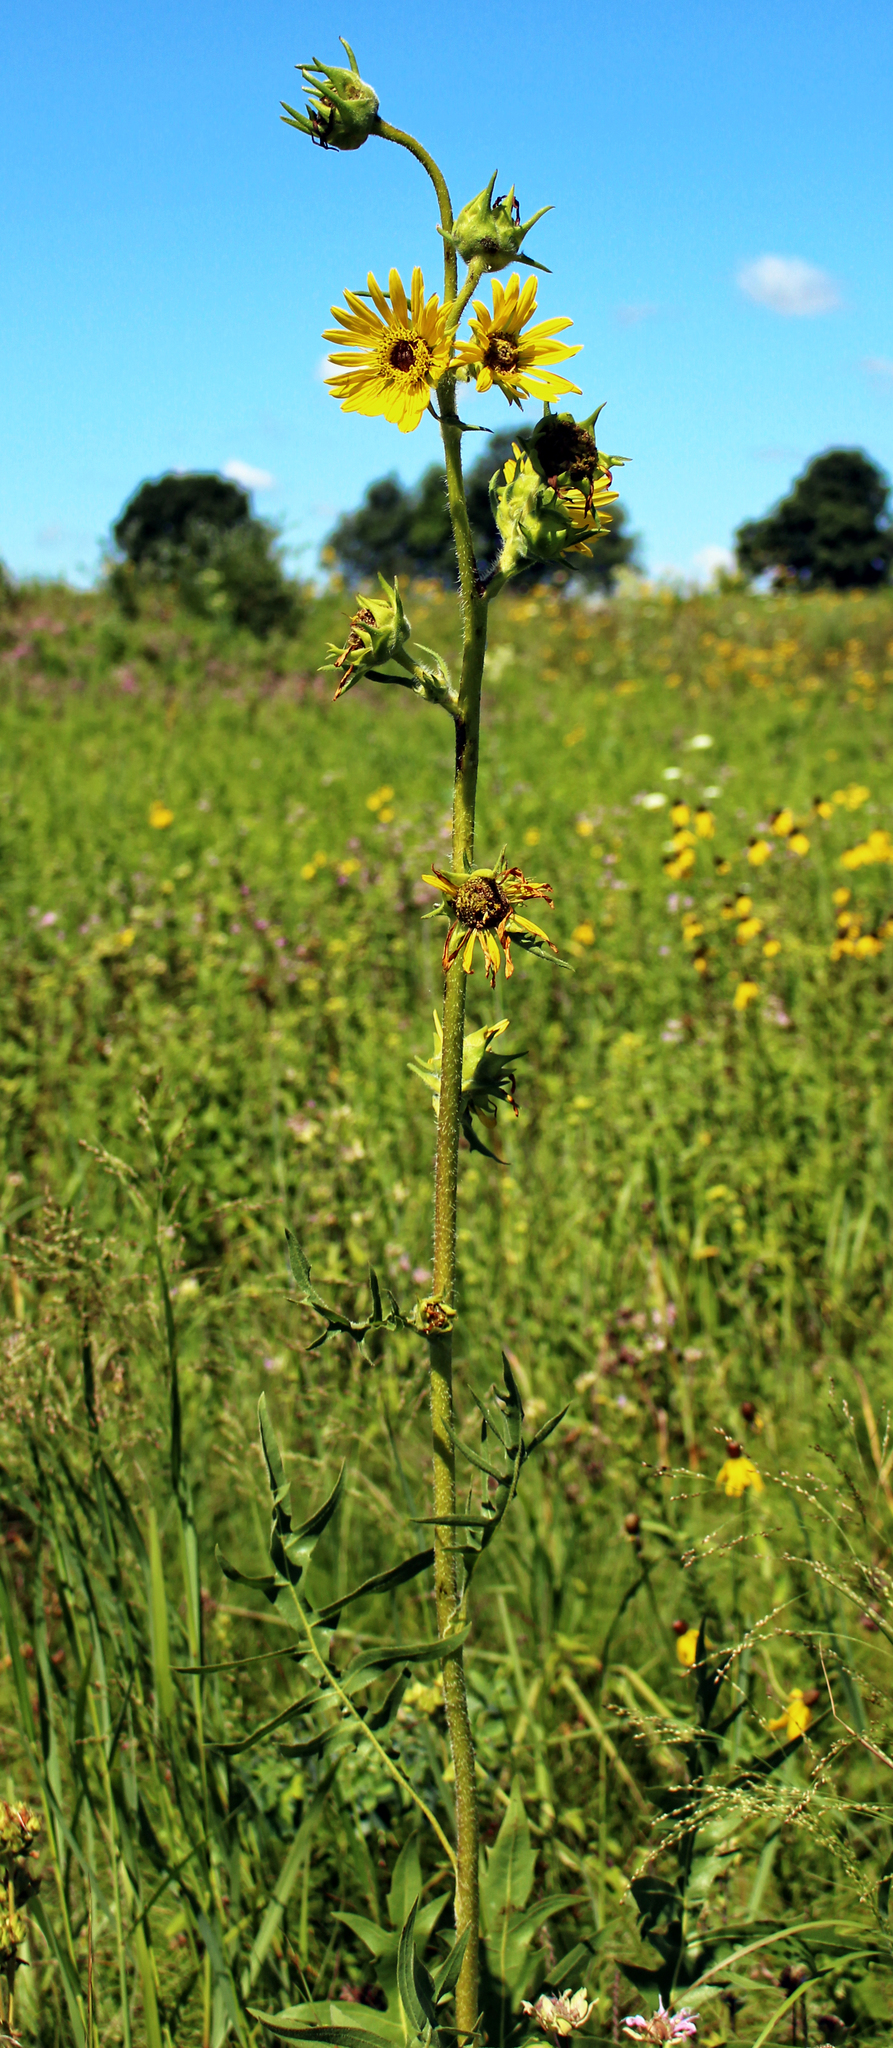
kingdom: Plantae
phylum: Tracheophyta
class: Magnoliopsida
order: Asterales
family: Asteraceae
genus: Silphium
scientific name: Silphium laciniatum
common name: Polarplant
